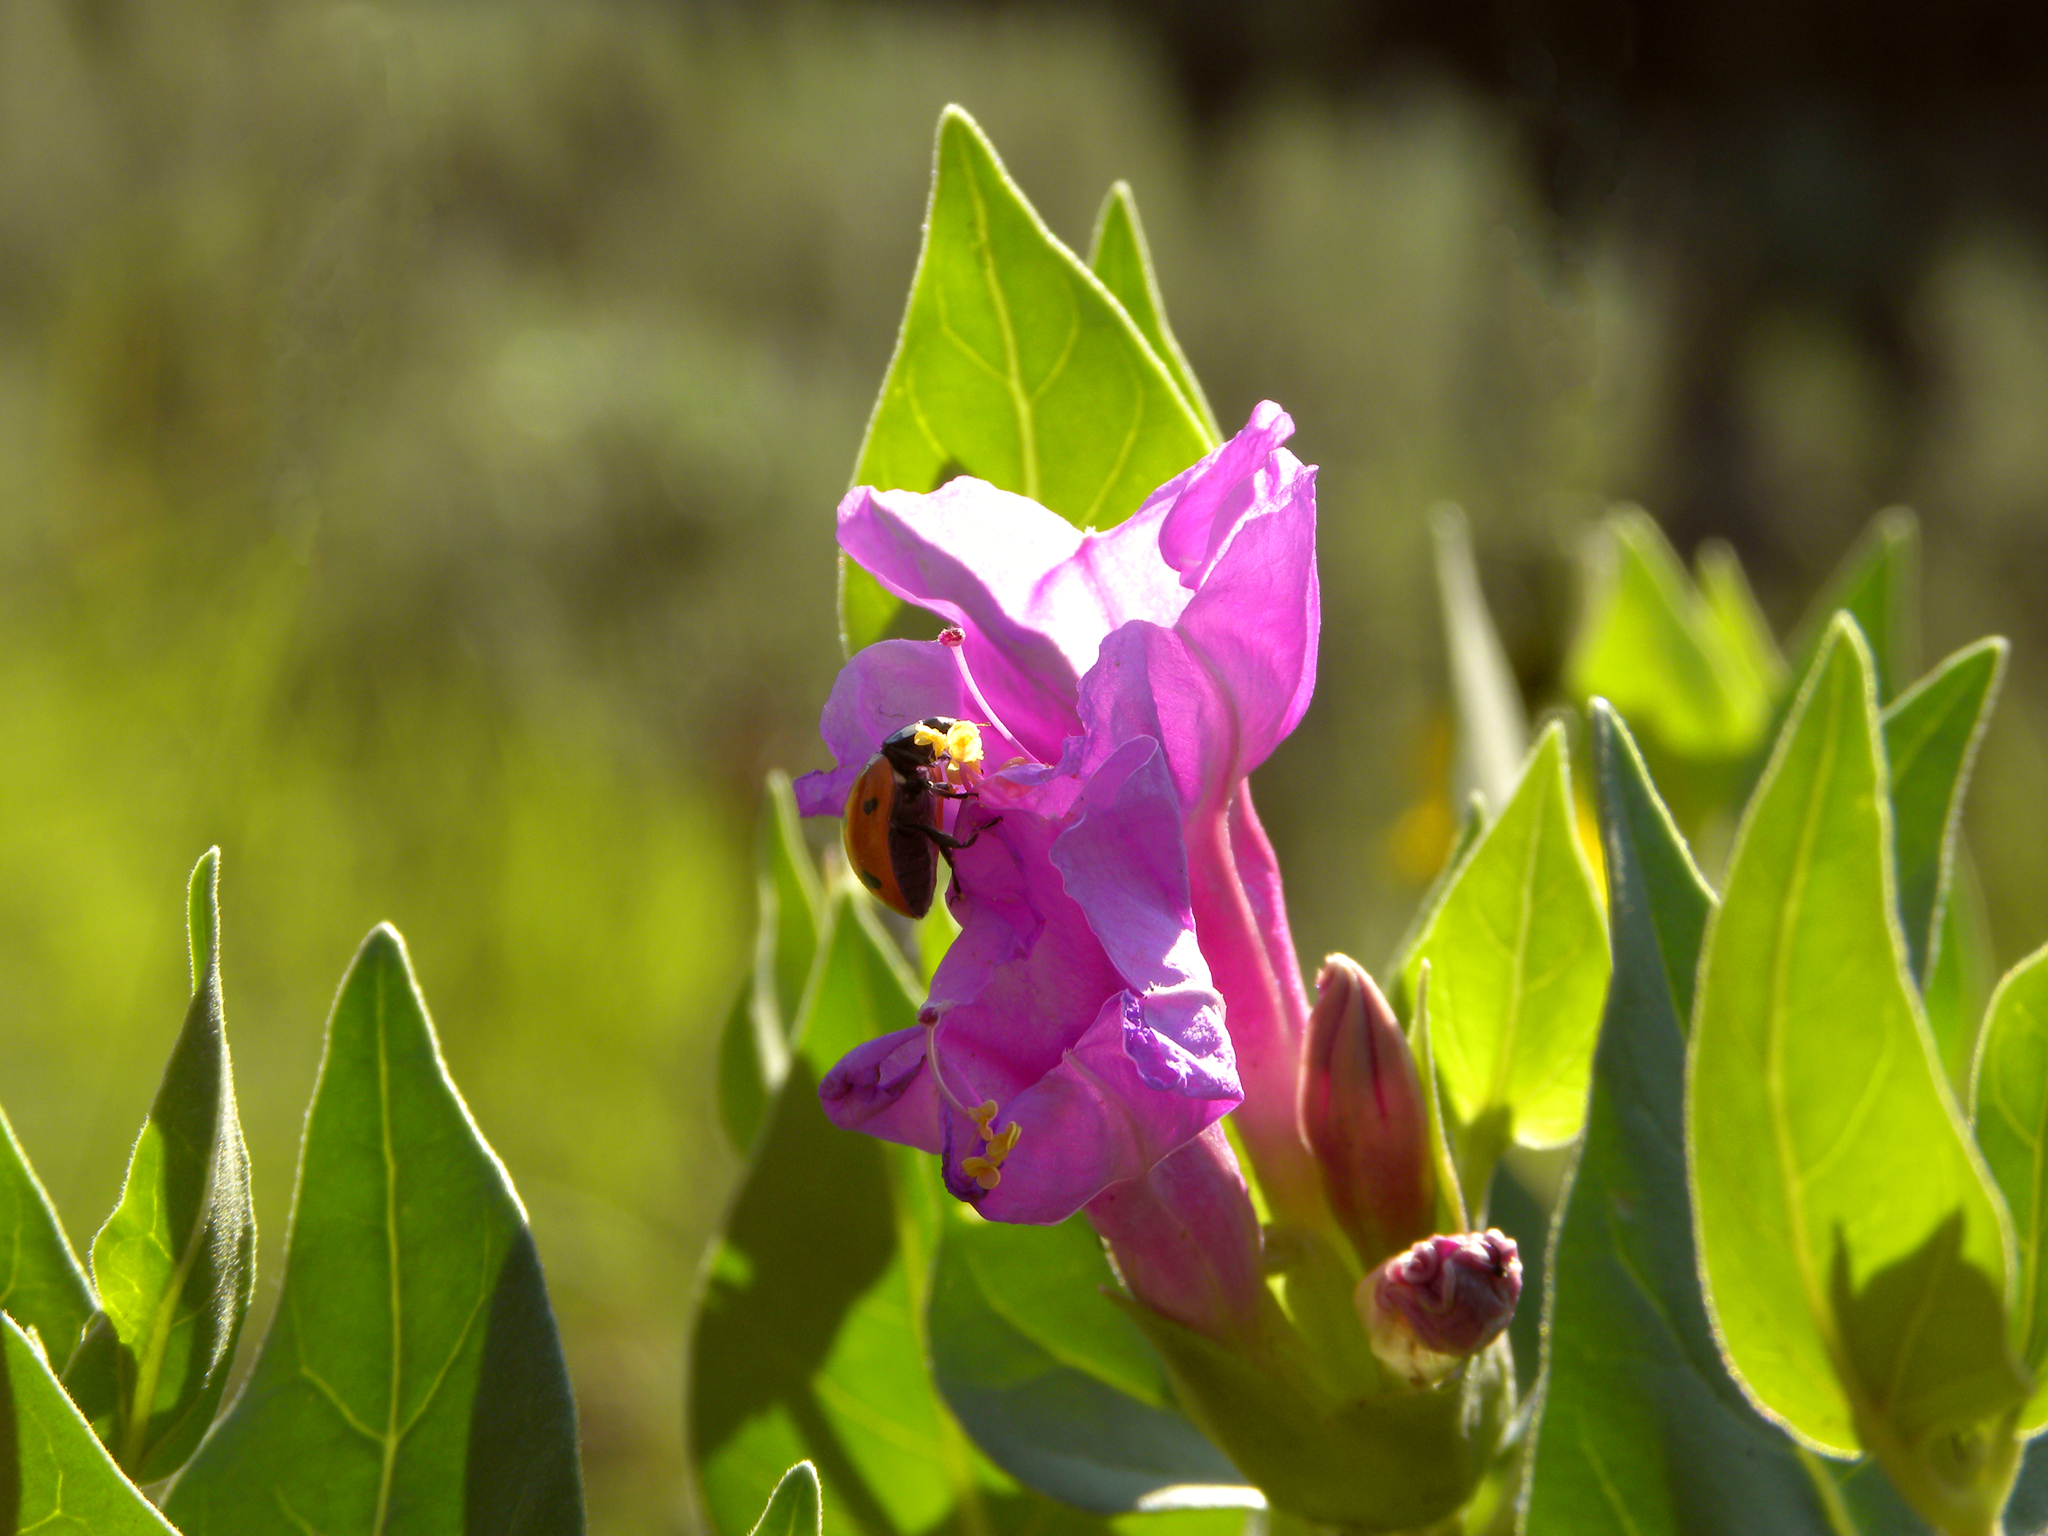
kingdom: Animalia
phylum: Arthropoda
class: Insecta
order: Coleoptera
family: Coccinellidae
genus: Coccinella
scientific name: Coccinella septempunctata
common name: Sevenspotted lady beetle
